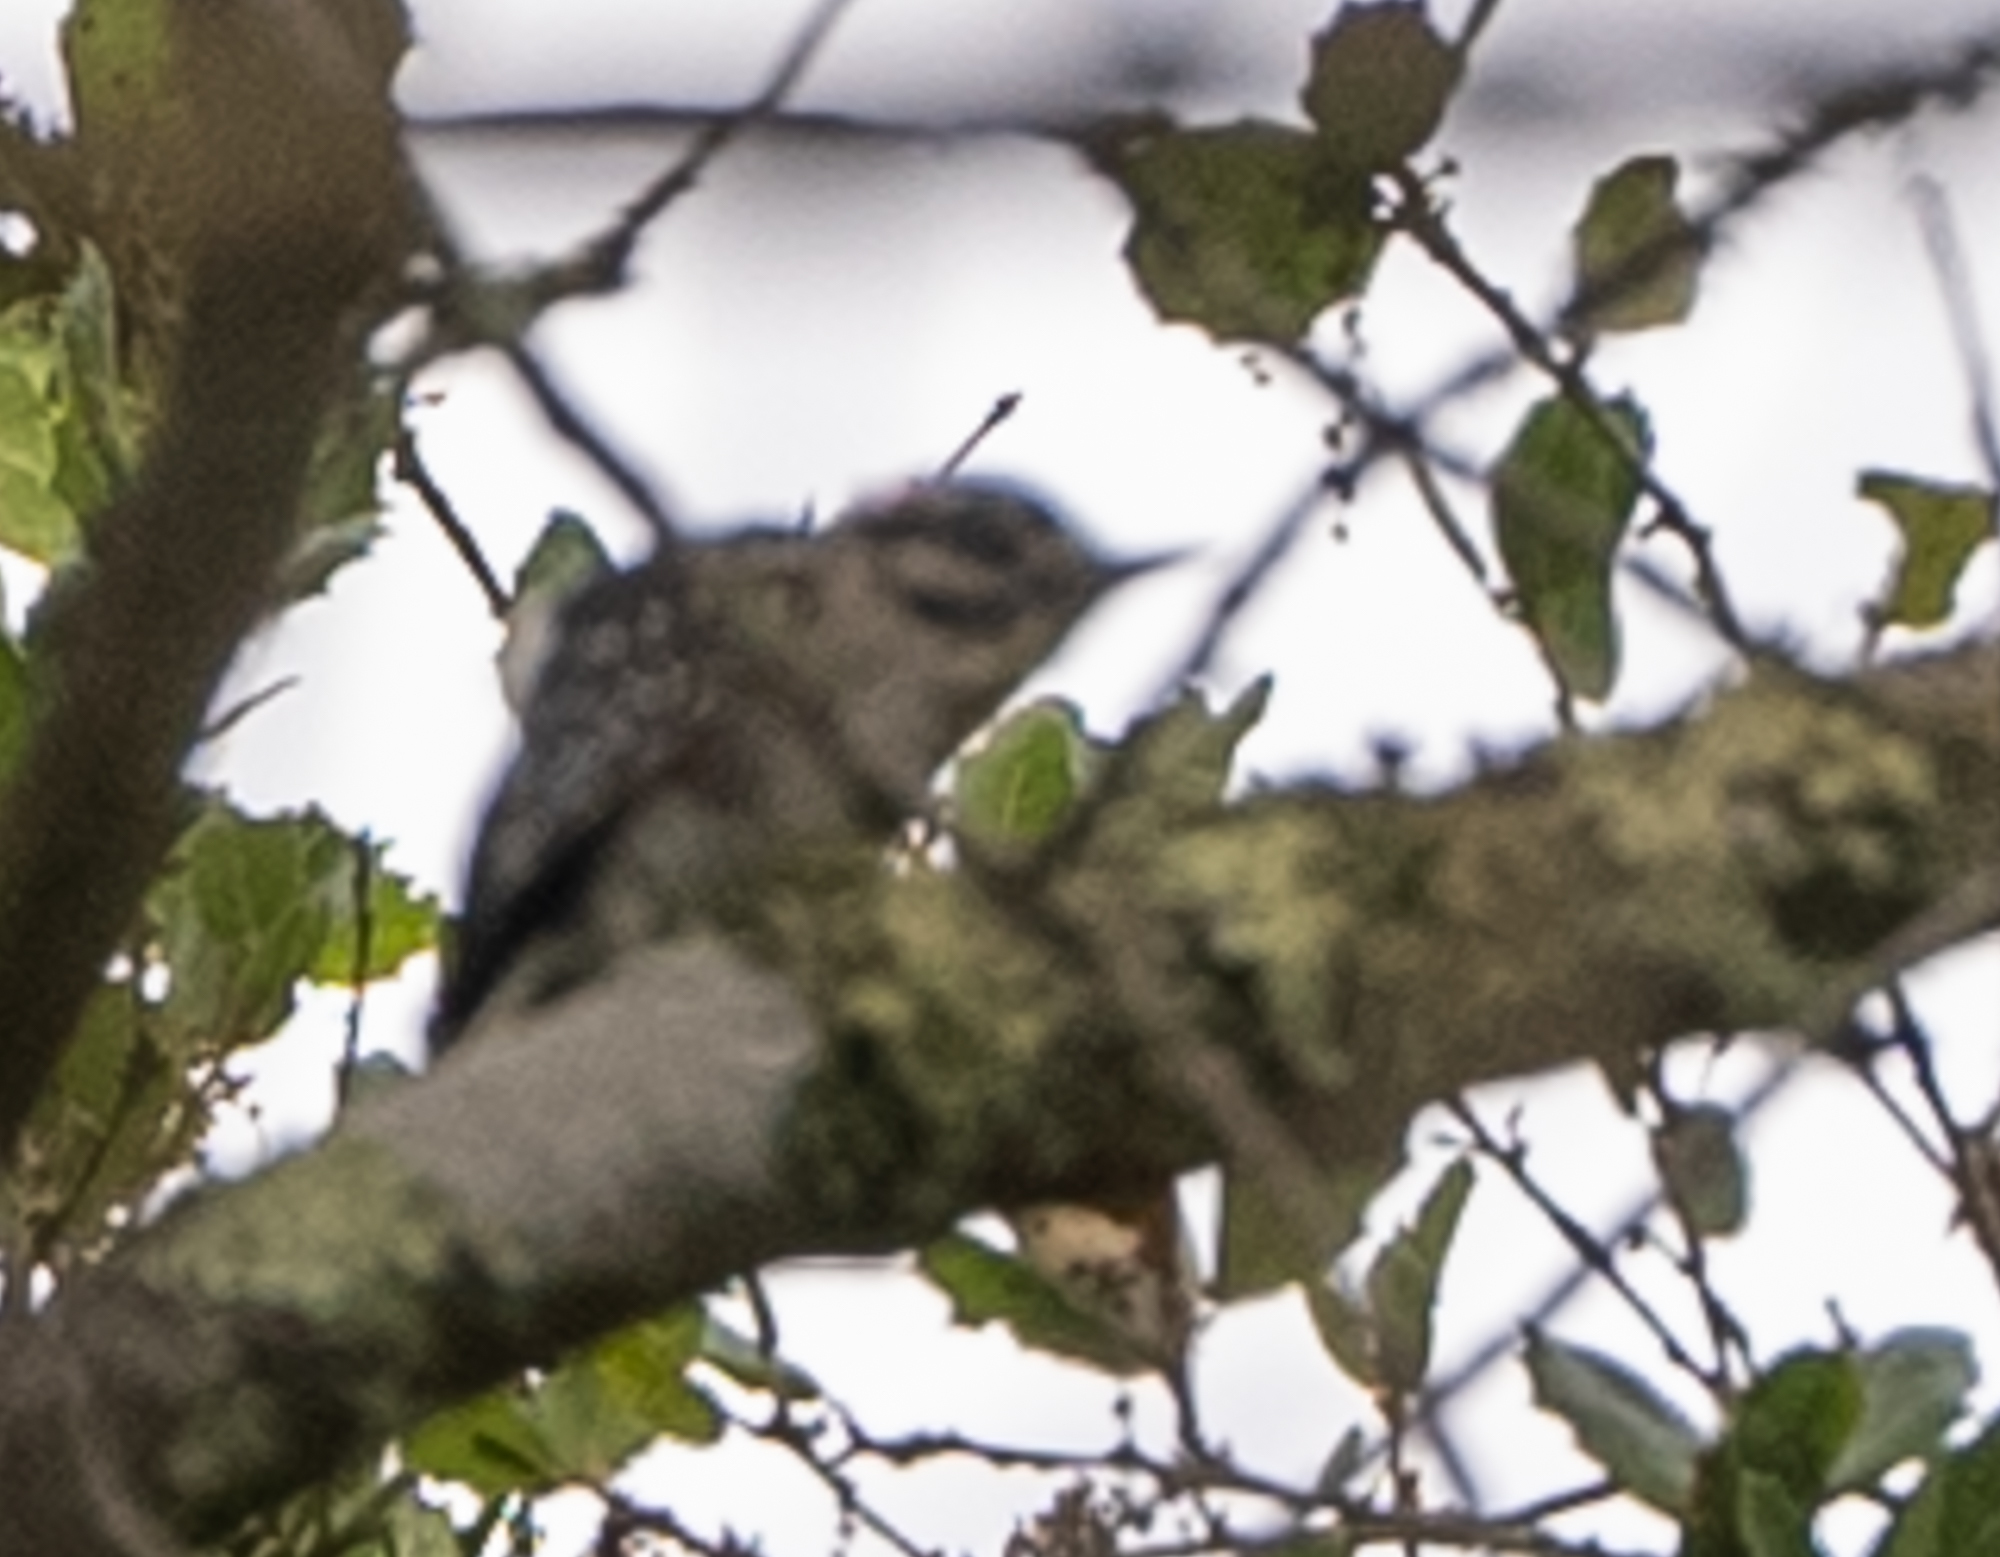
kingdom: Animalia
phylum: Chordata
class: Aves
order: Piciformes
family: Picidae
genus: Dryobates
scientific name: Dryobates pubescens
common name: Downy woodpecker
